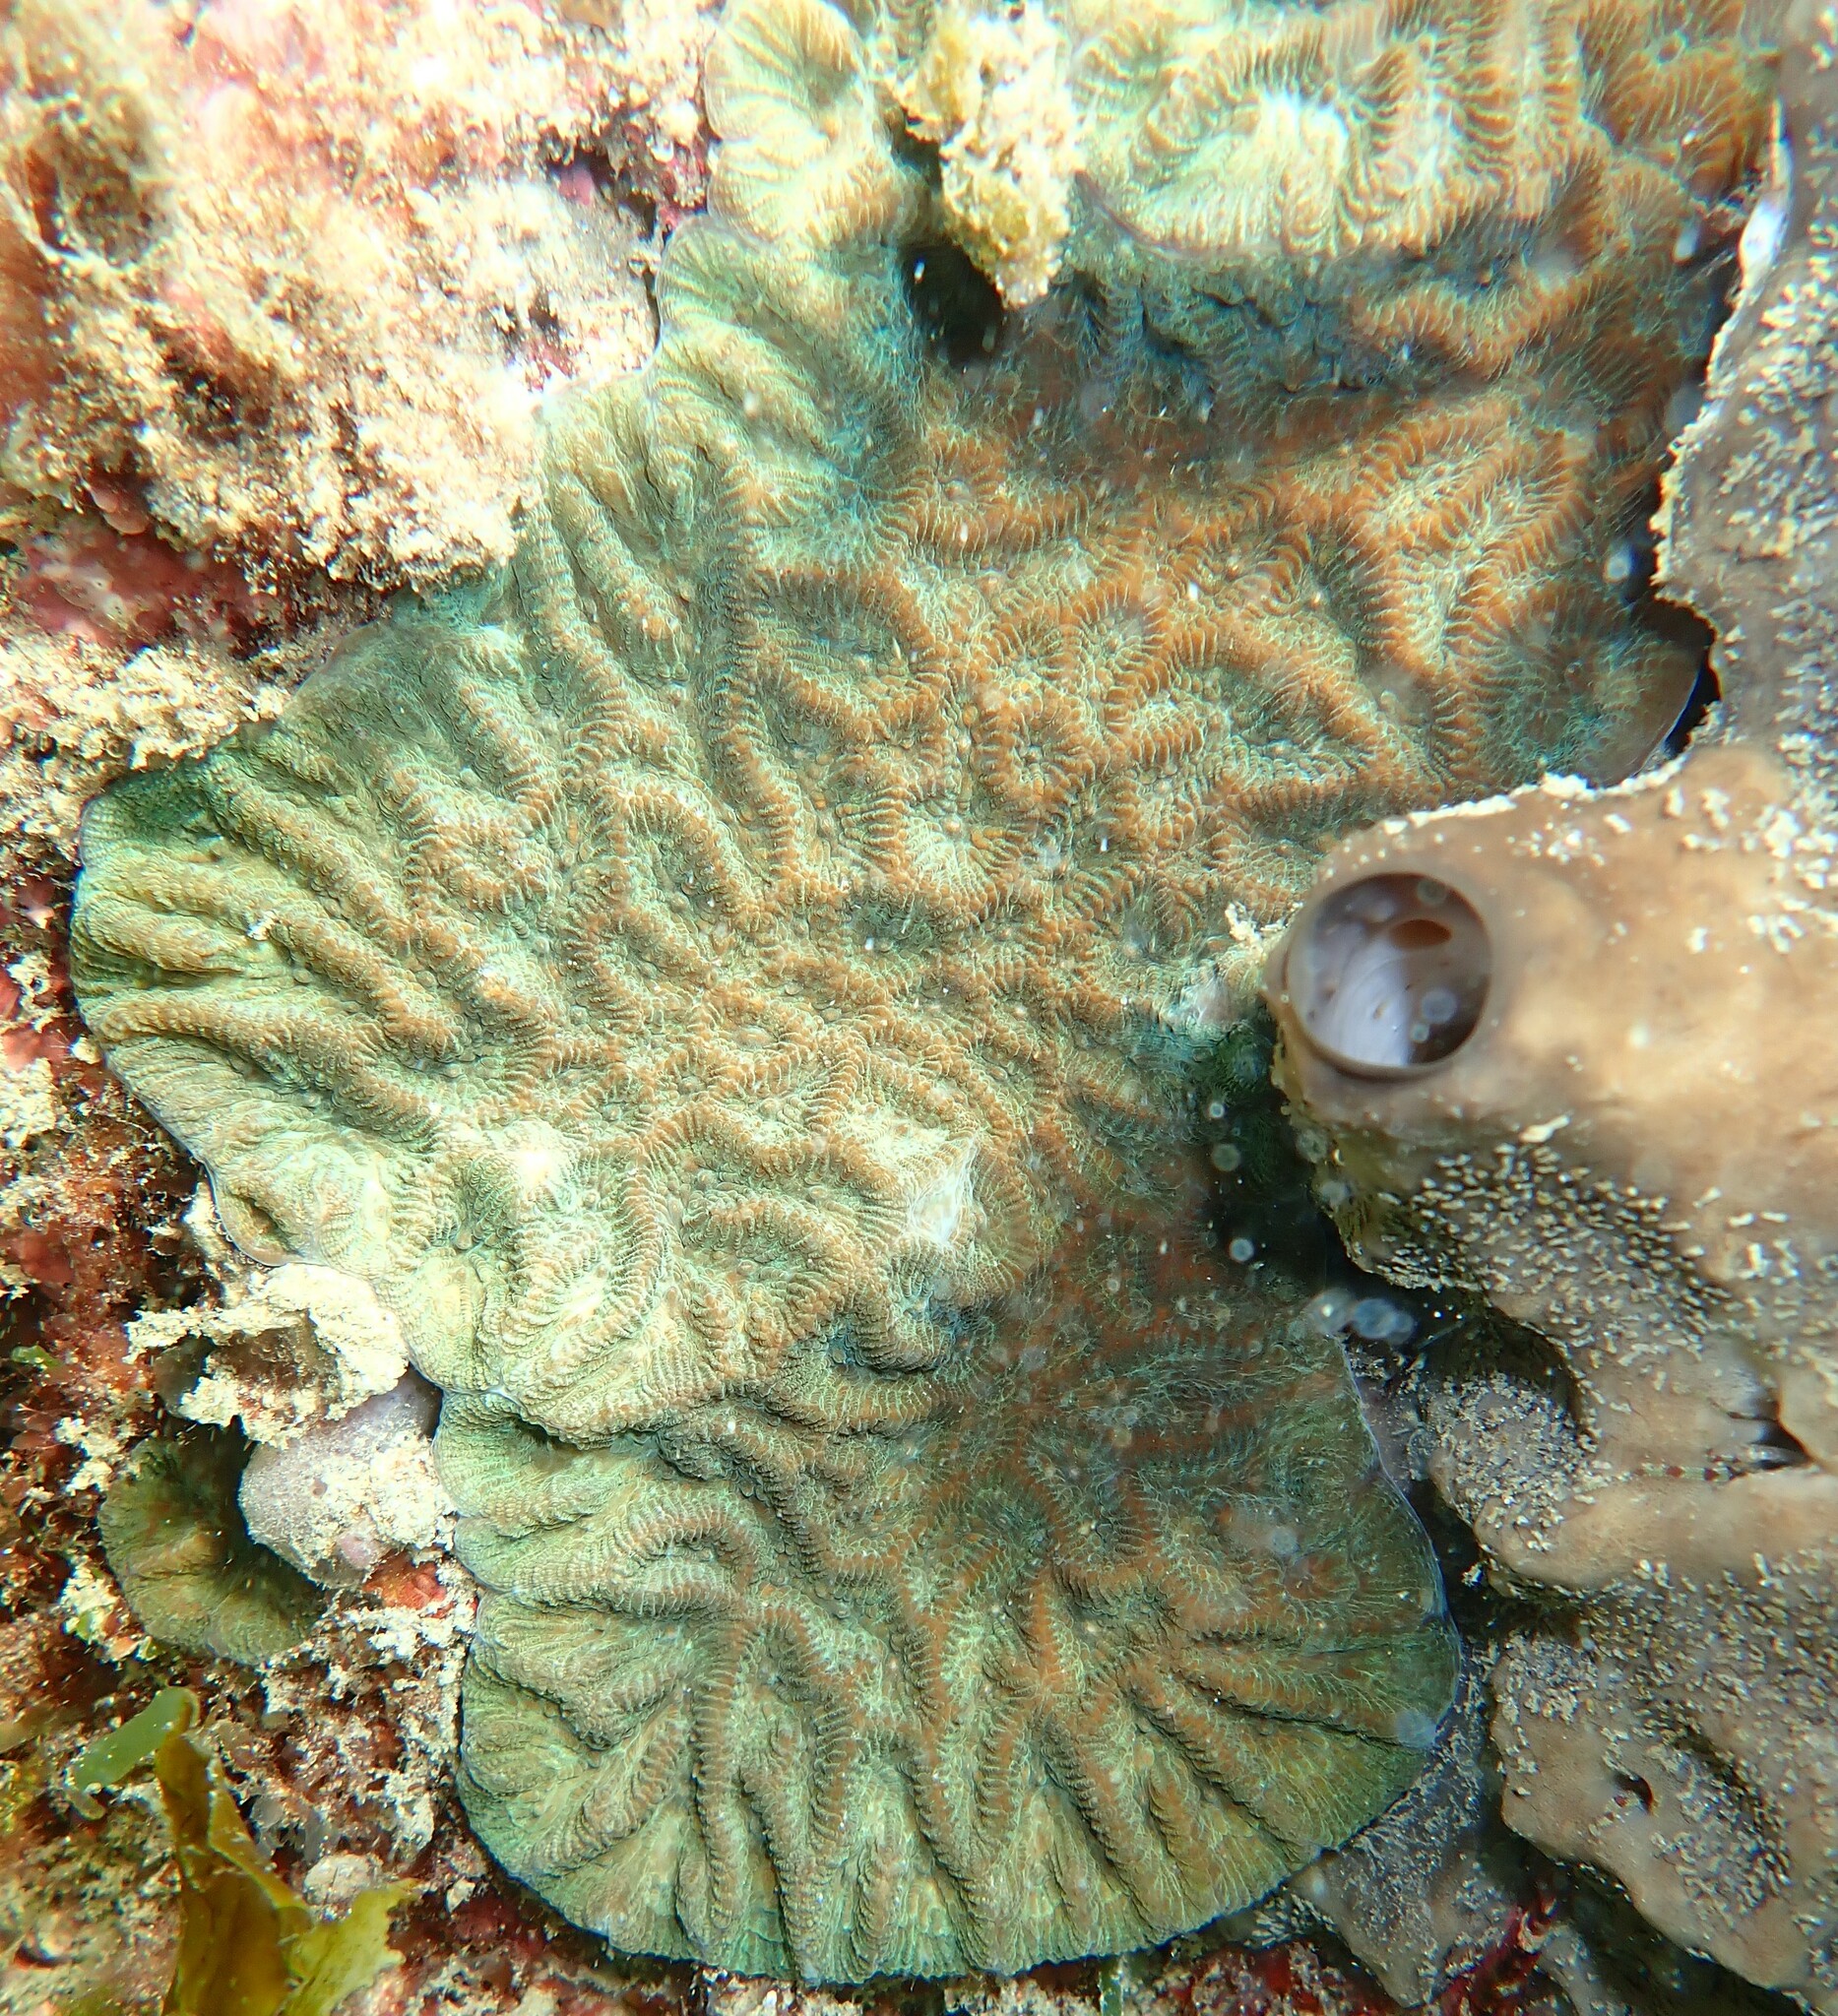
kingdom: Animalia
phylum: Cnidaria
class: Anthozoa
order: Scleractinia
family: Merulinidae
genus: Paragoniastrea
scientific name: Paragoniastrea australensis
